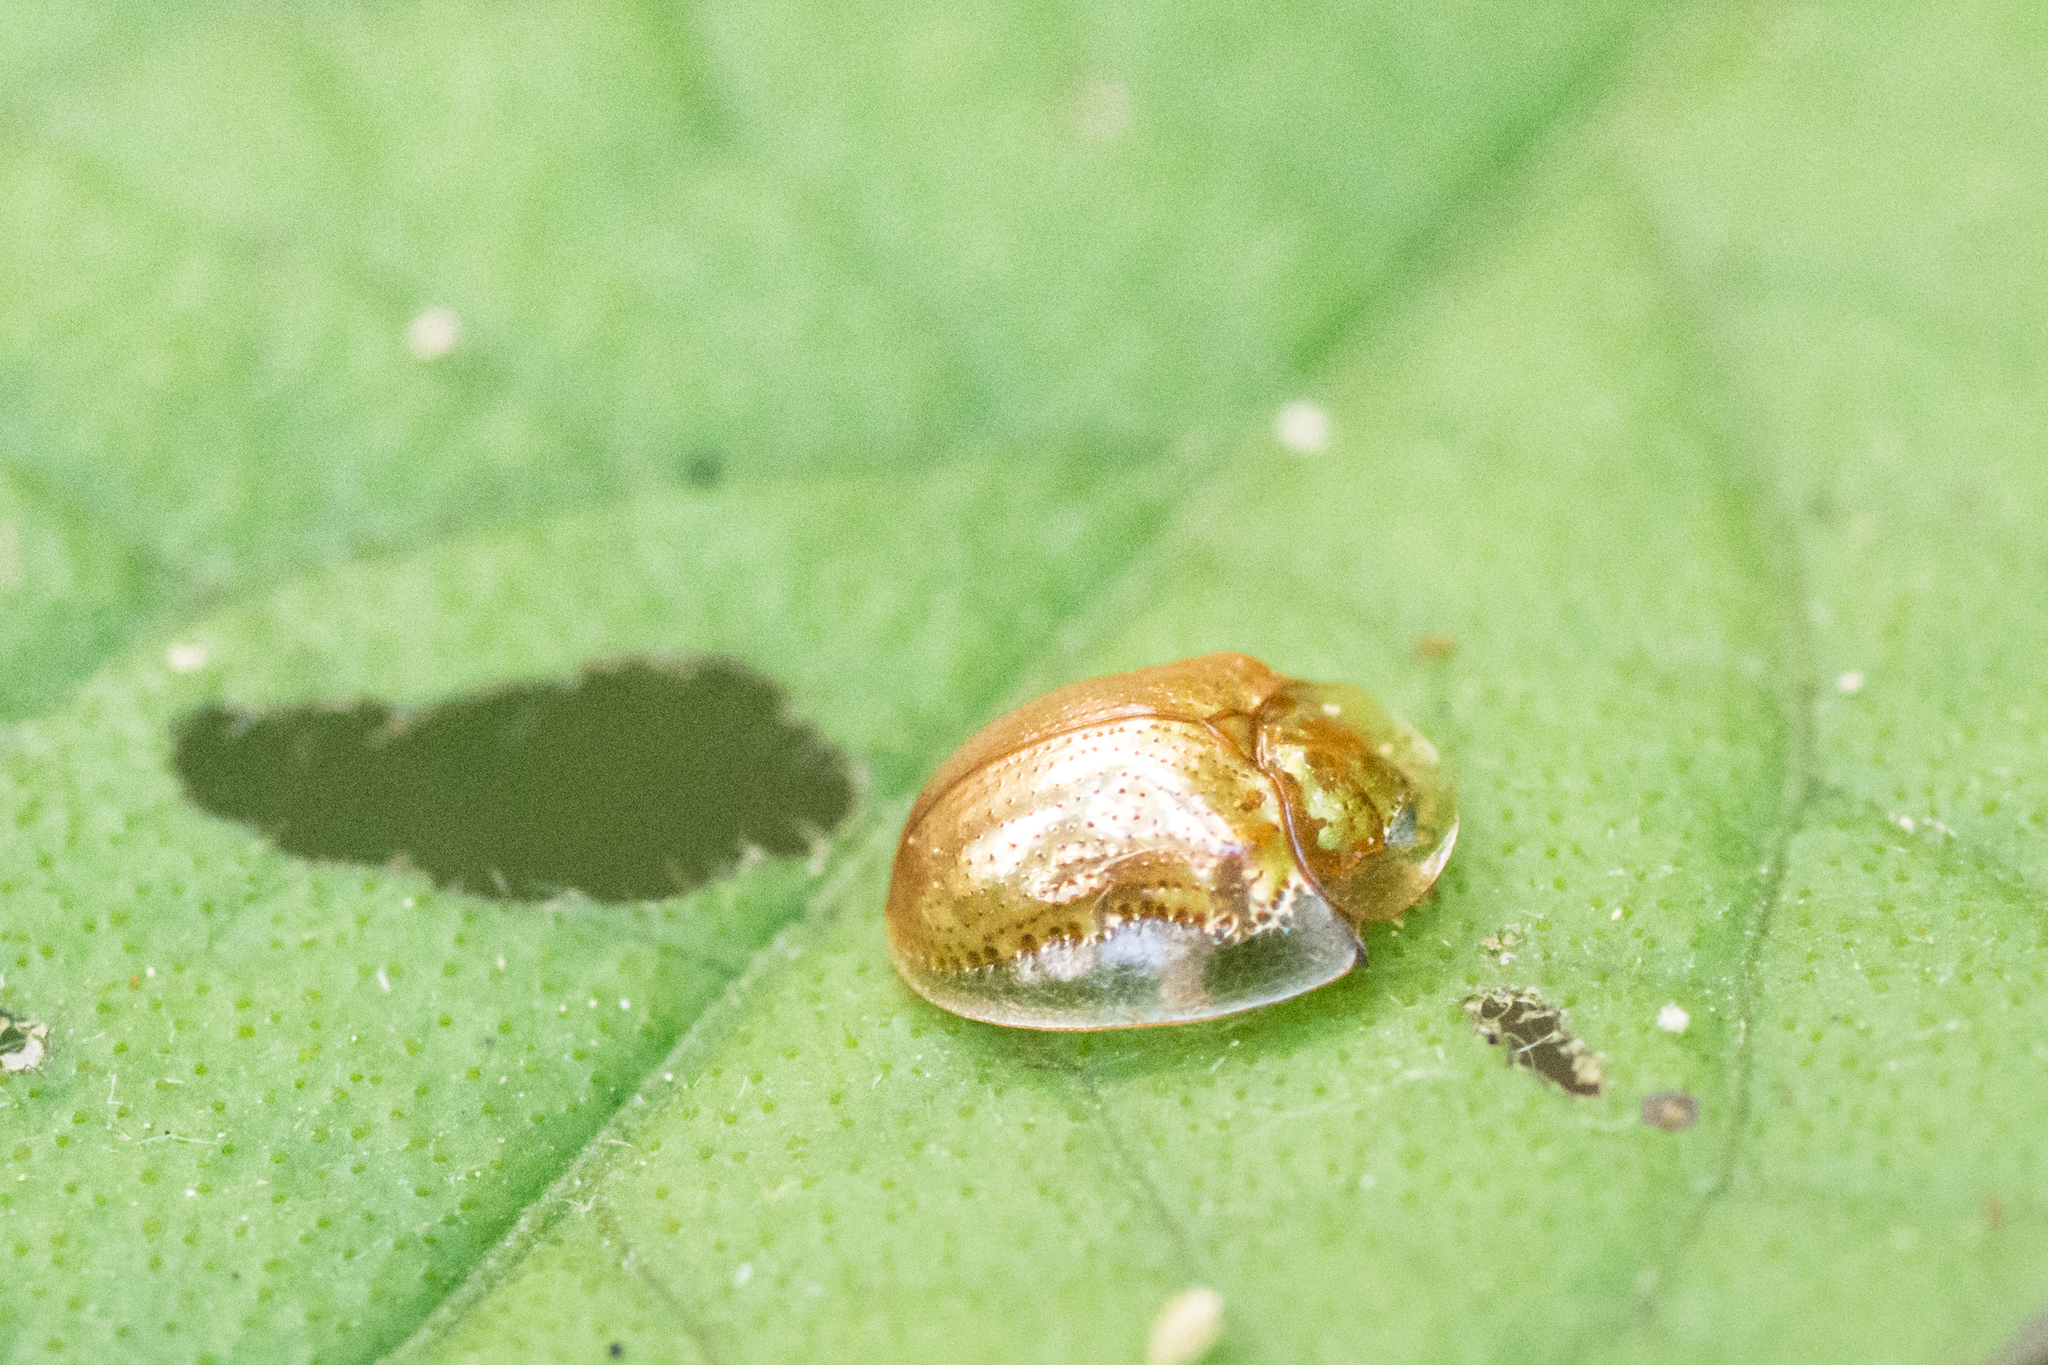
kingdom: Animalia
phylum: Arthropoda
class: Insecta
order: Coleoptera
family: Chrysomelidae
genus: Charidotella
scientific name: Charidotella sexpunctata
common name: Golden tortoise beetle
